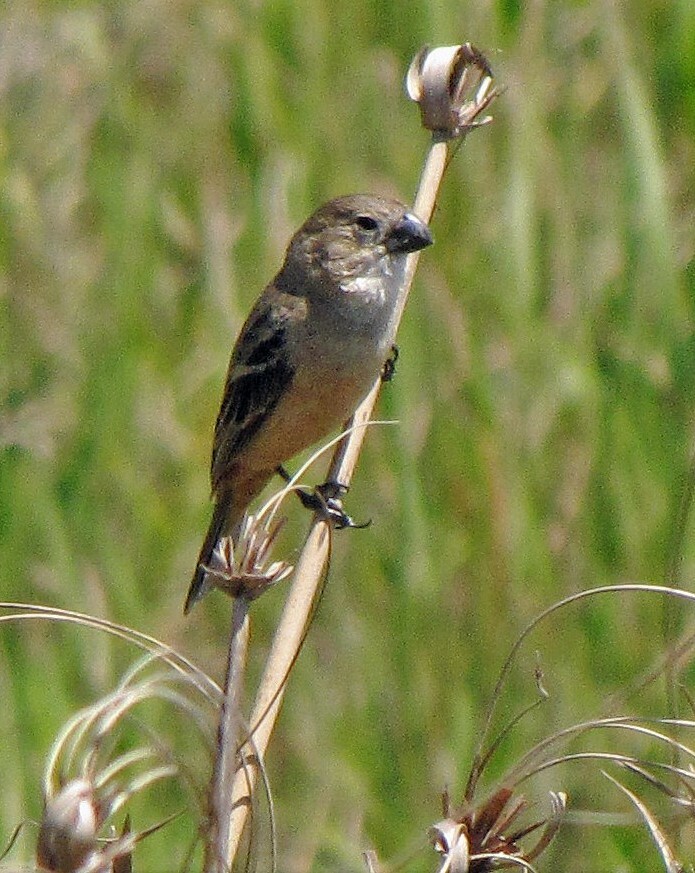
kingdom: Animalia
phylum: Chordata
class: Aves
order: Passeriformes
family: Thraupidae
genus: Sporophila
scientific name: Sporophila collaris
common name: Rusty-collared seedeater
